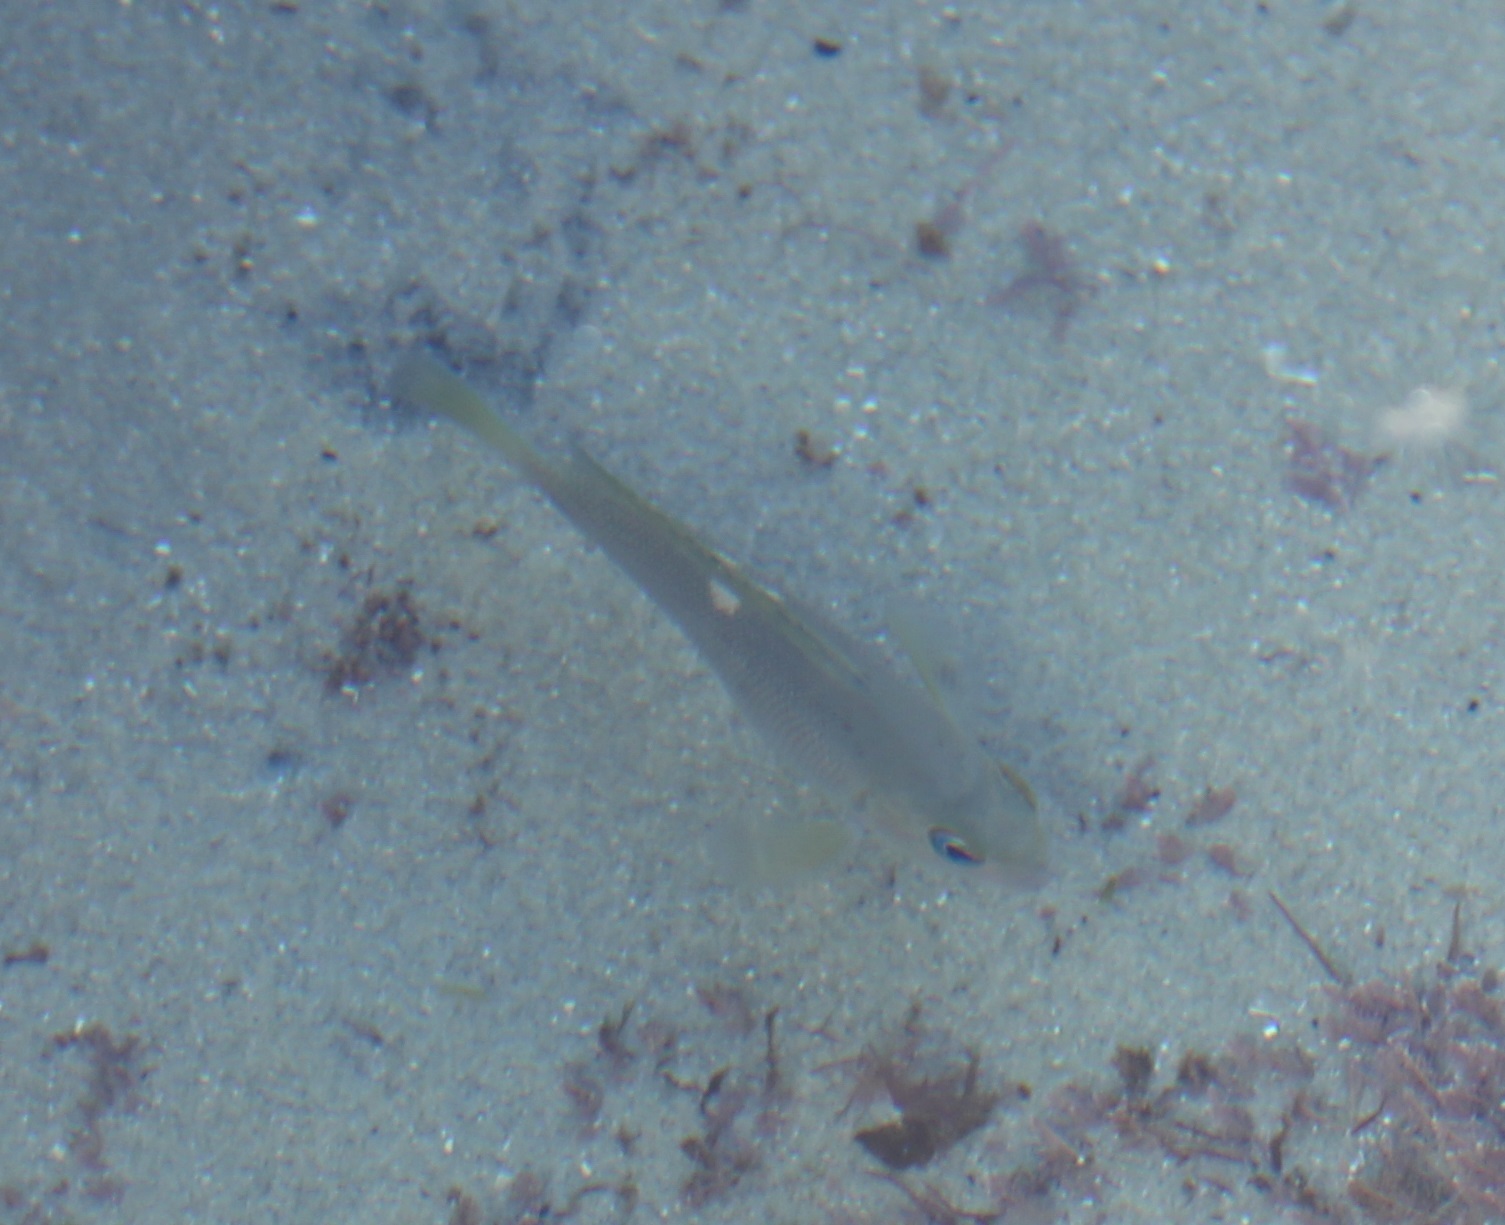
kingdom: Animalia
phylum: Chordata
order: Perciformes
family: Kyphosidae
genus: Girella
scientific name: Girella nigricans
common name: Opaleye
